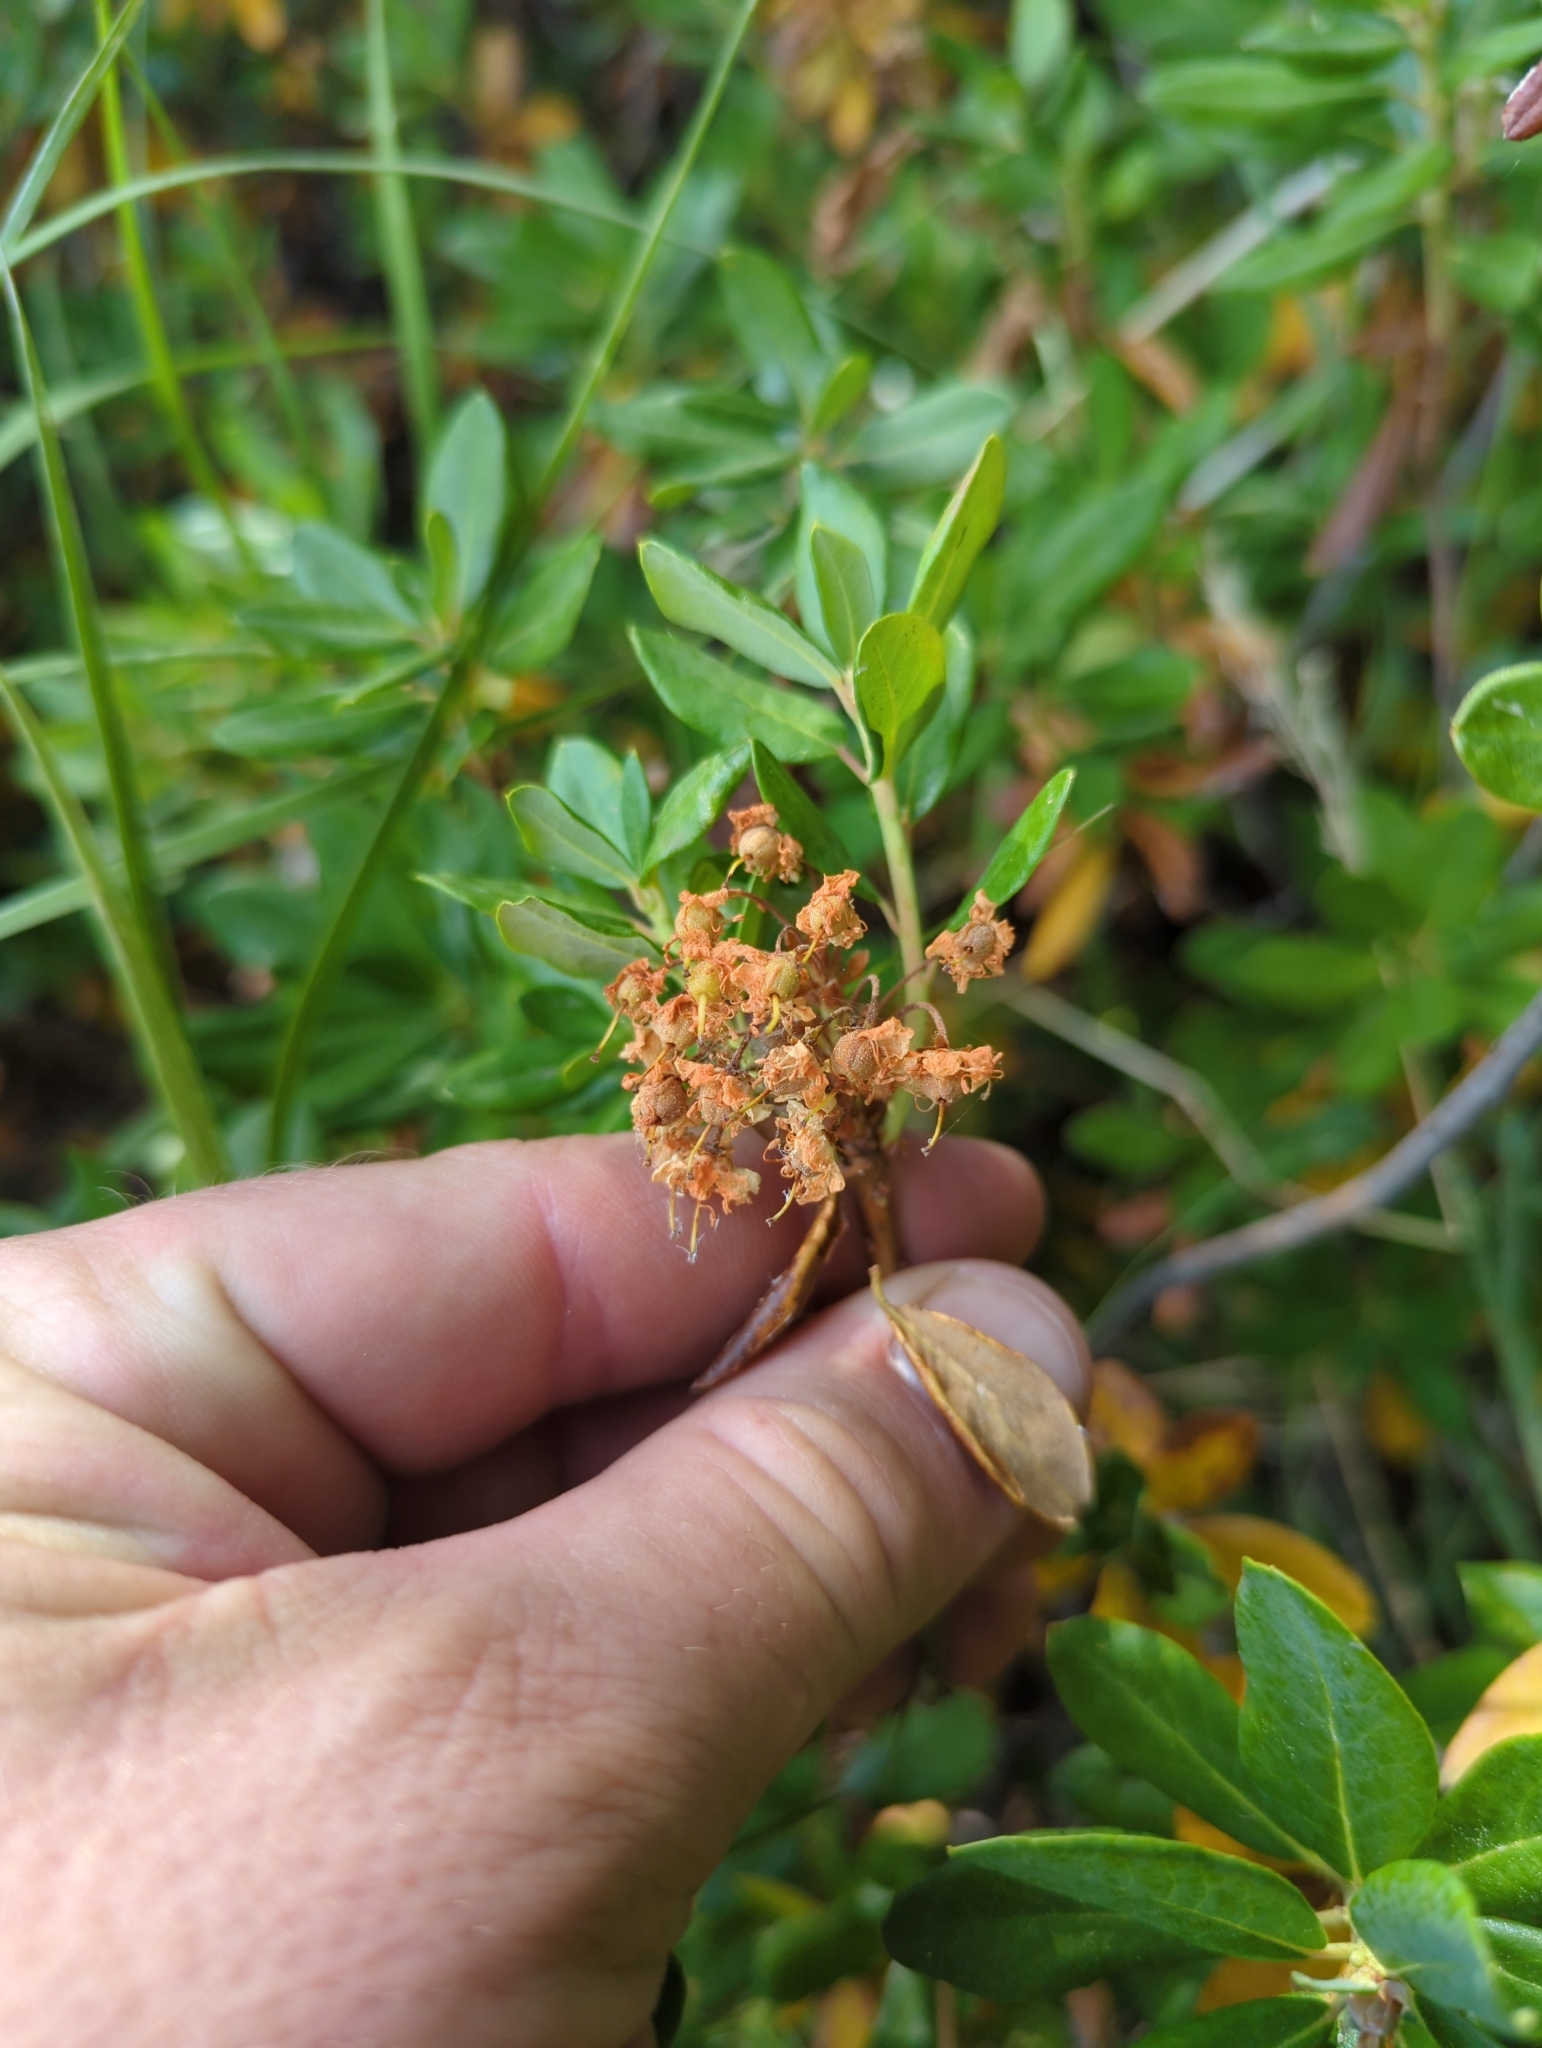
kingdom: Plantae
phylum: Tracheophyta
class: Magnoliopsida
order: Ericales
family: Ericaceae
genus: Rhododendron
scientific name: Rhododendron columbianum
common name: Western labrador tea
